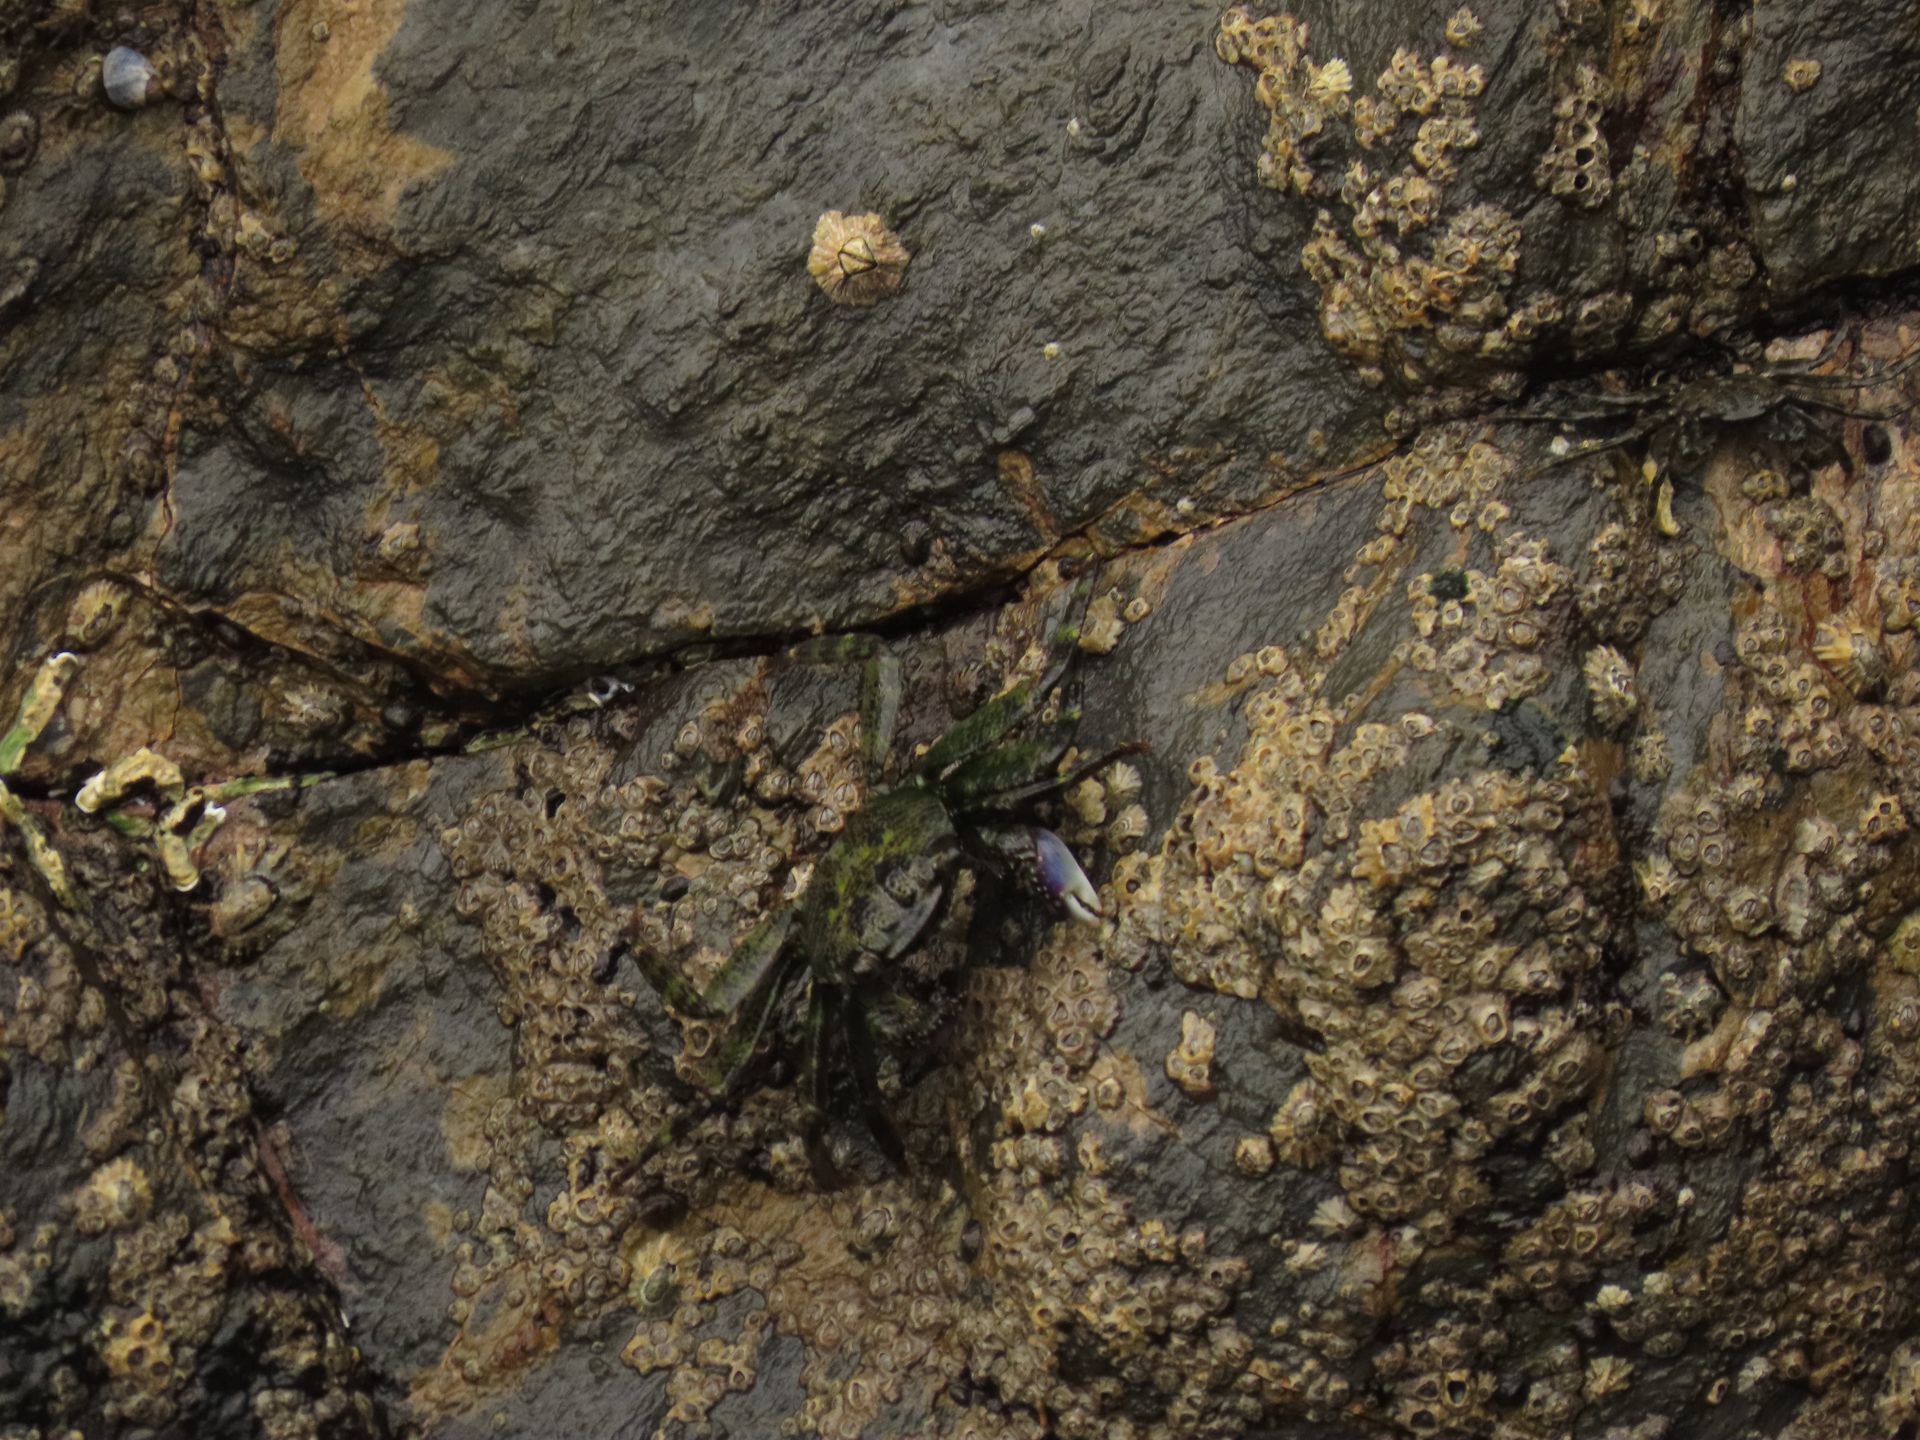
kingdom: Animalia
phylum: Arthropoda
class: Malacostraca
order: Decapoda
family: Grapsidae
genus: Leptograpsus
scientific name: Leptograpsus variegatus
